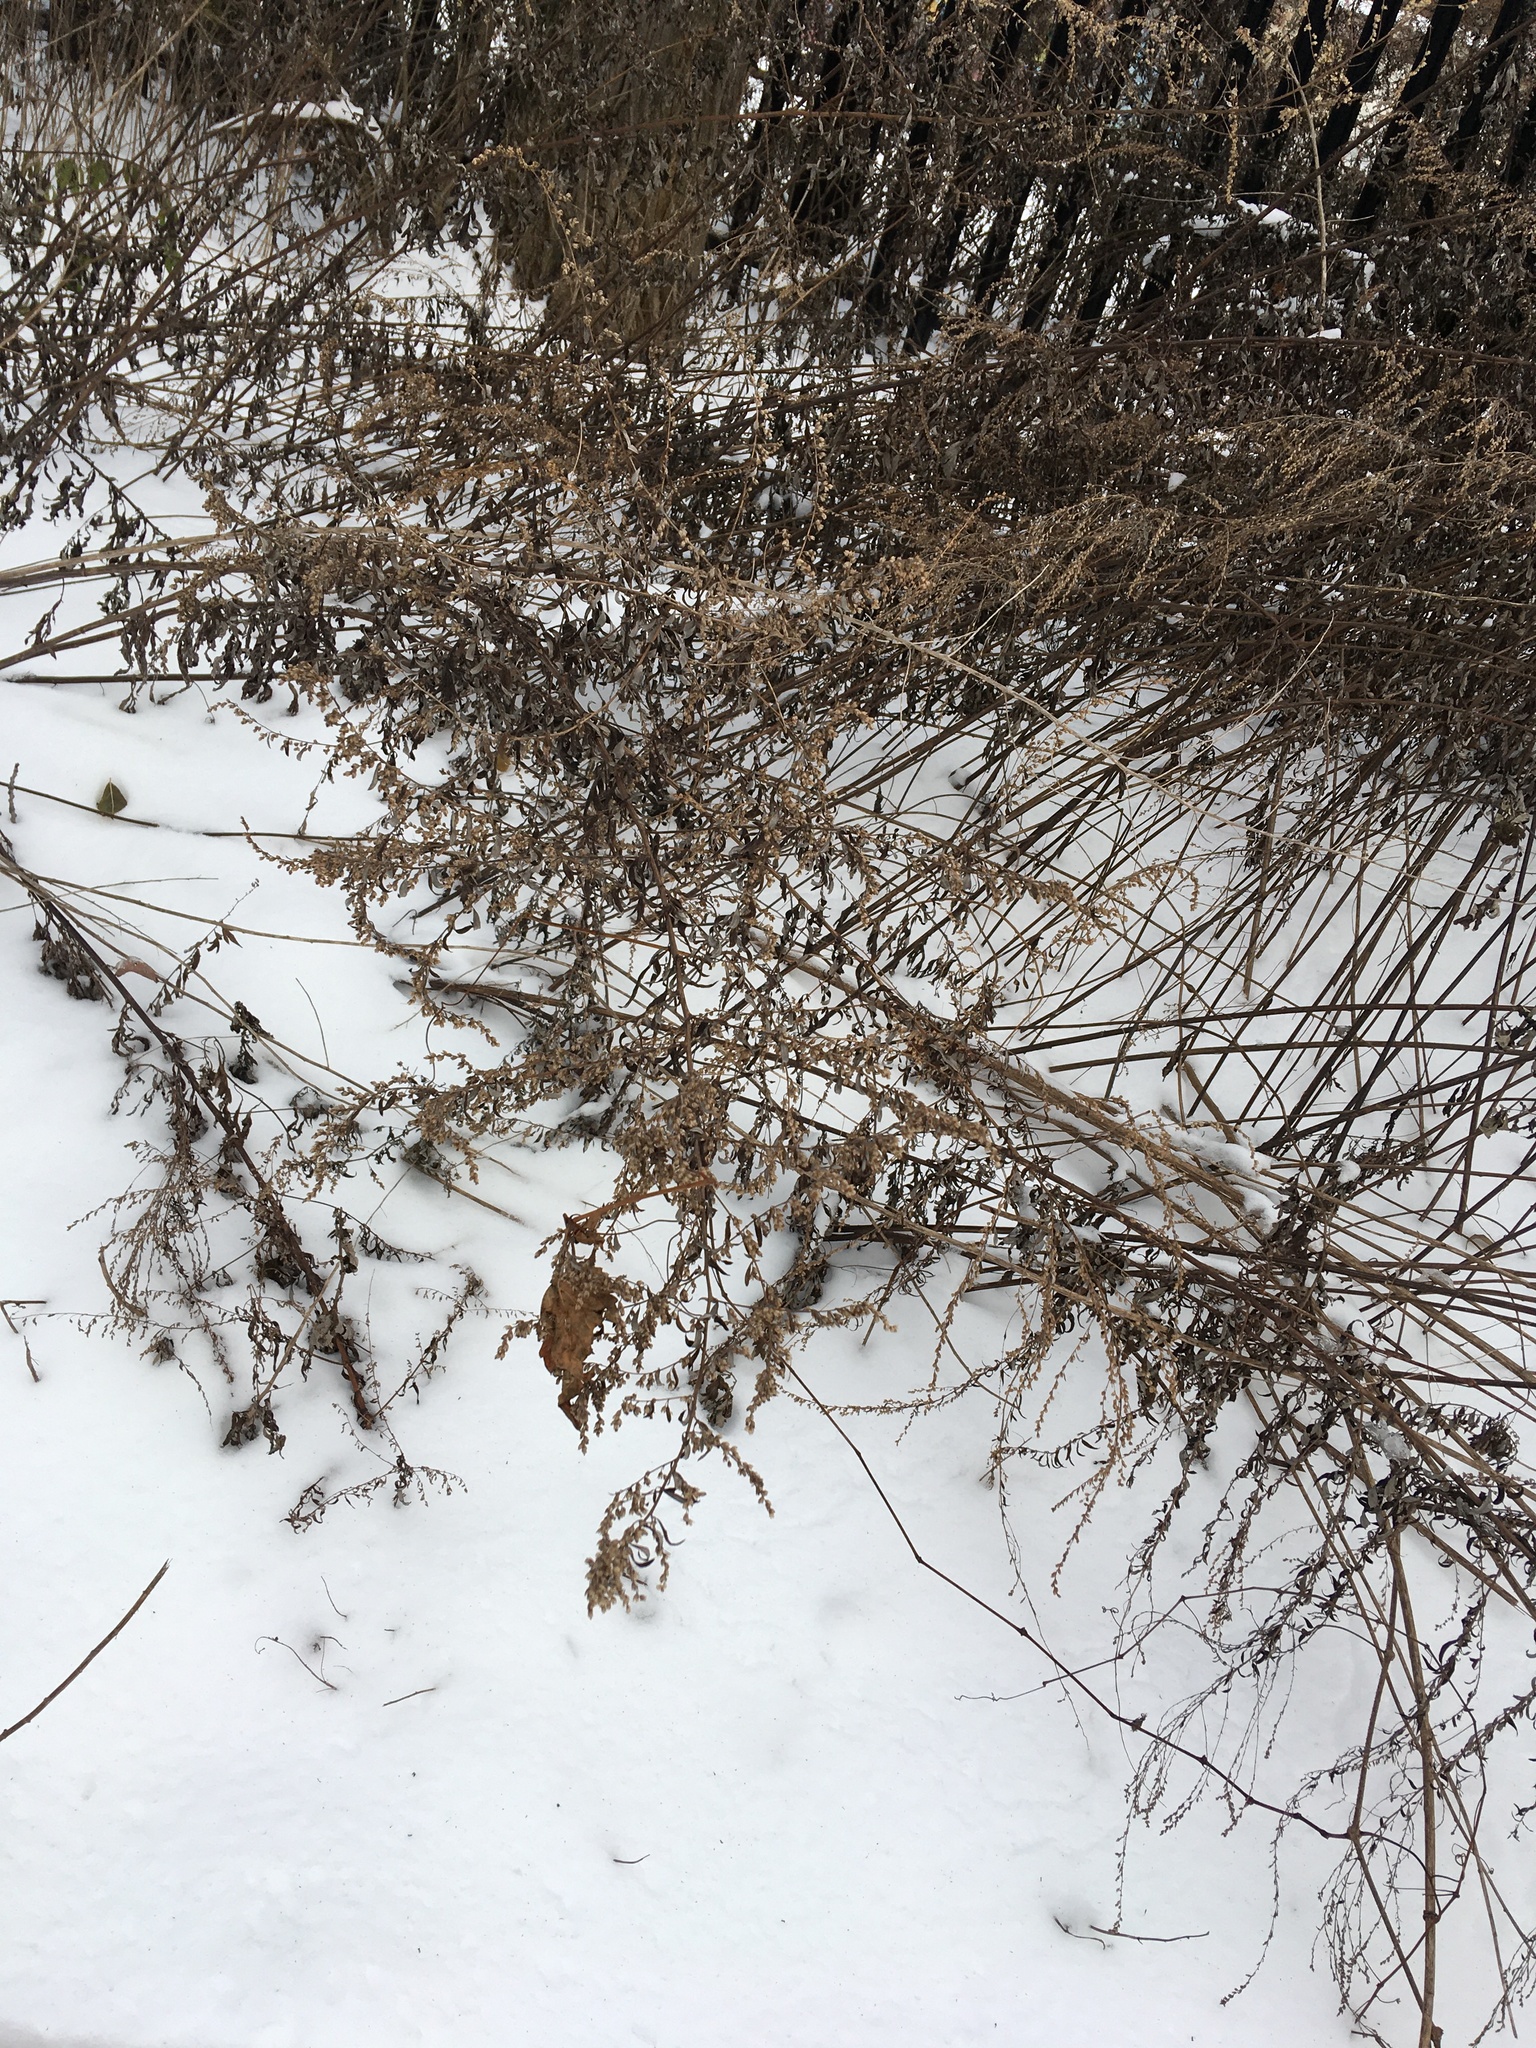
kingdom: Plantae
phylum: Tracheophyta
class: Magnoliopsida
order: Asterales
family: Asteraceae
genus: Artemisia
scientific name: Artemisia vulgaris
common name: Mugwort
